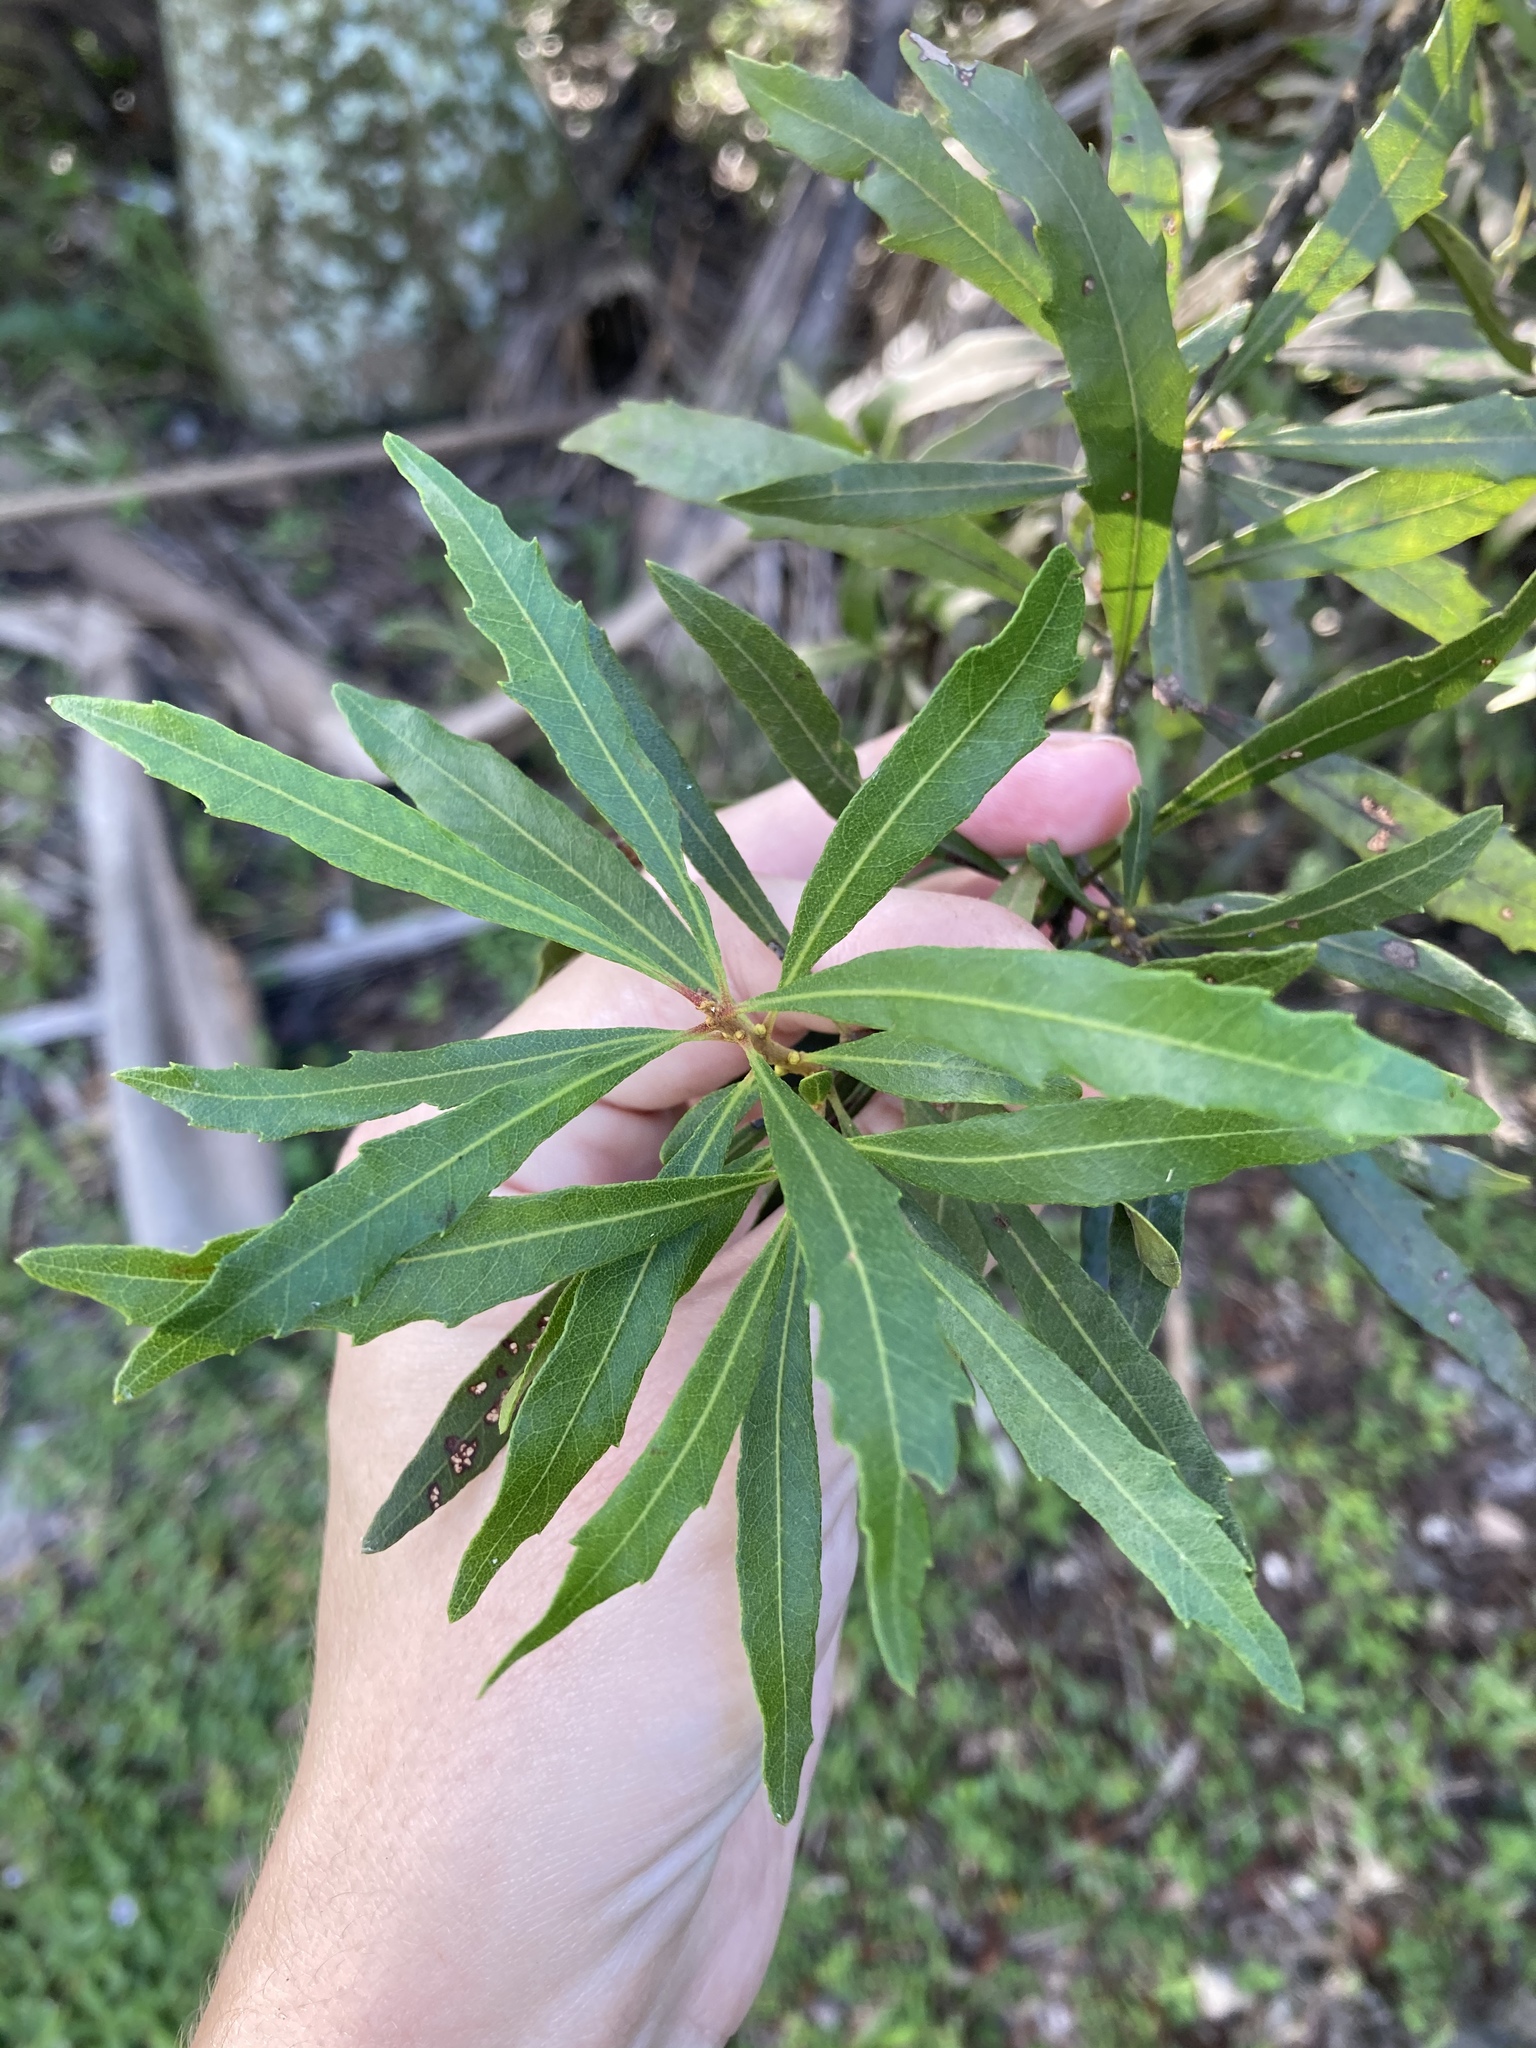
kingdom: Plantae
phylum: Tracheophyta
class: Magnoliopsida
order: Fagales
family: Myricaceae
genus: Morella
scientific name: Morella cerifera
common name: Wax myrtle
